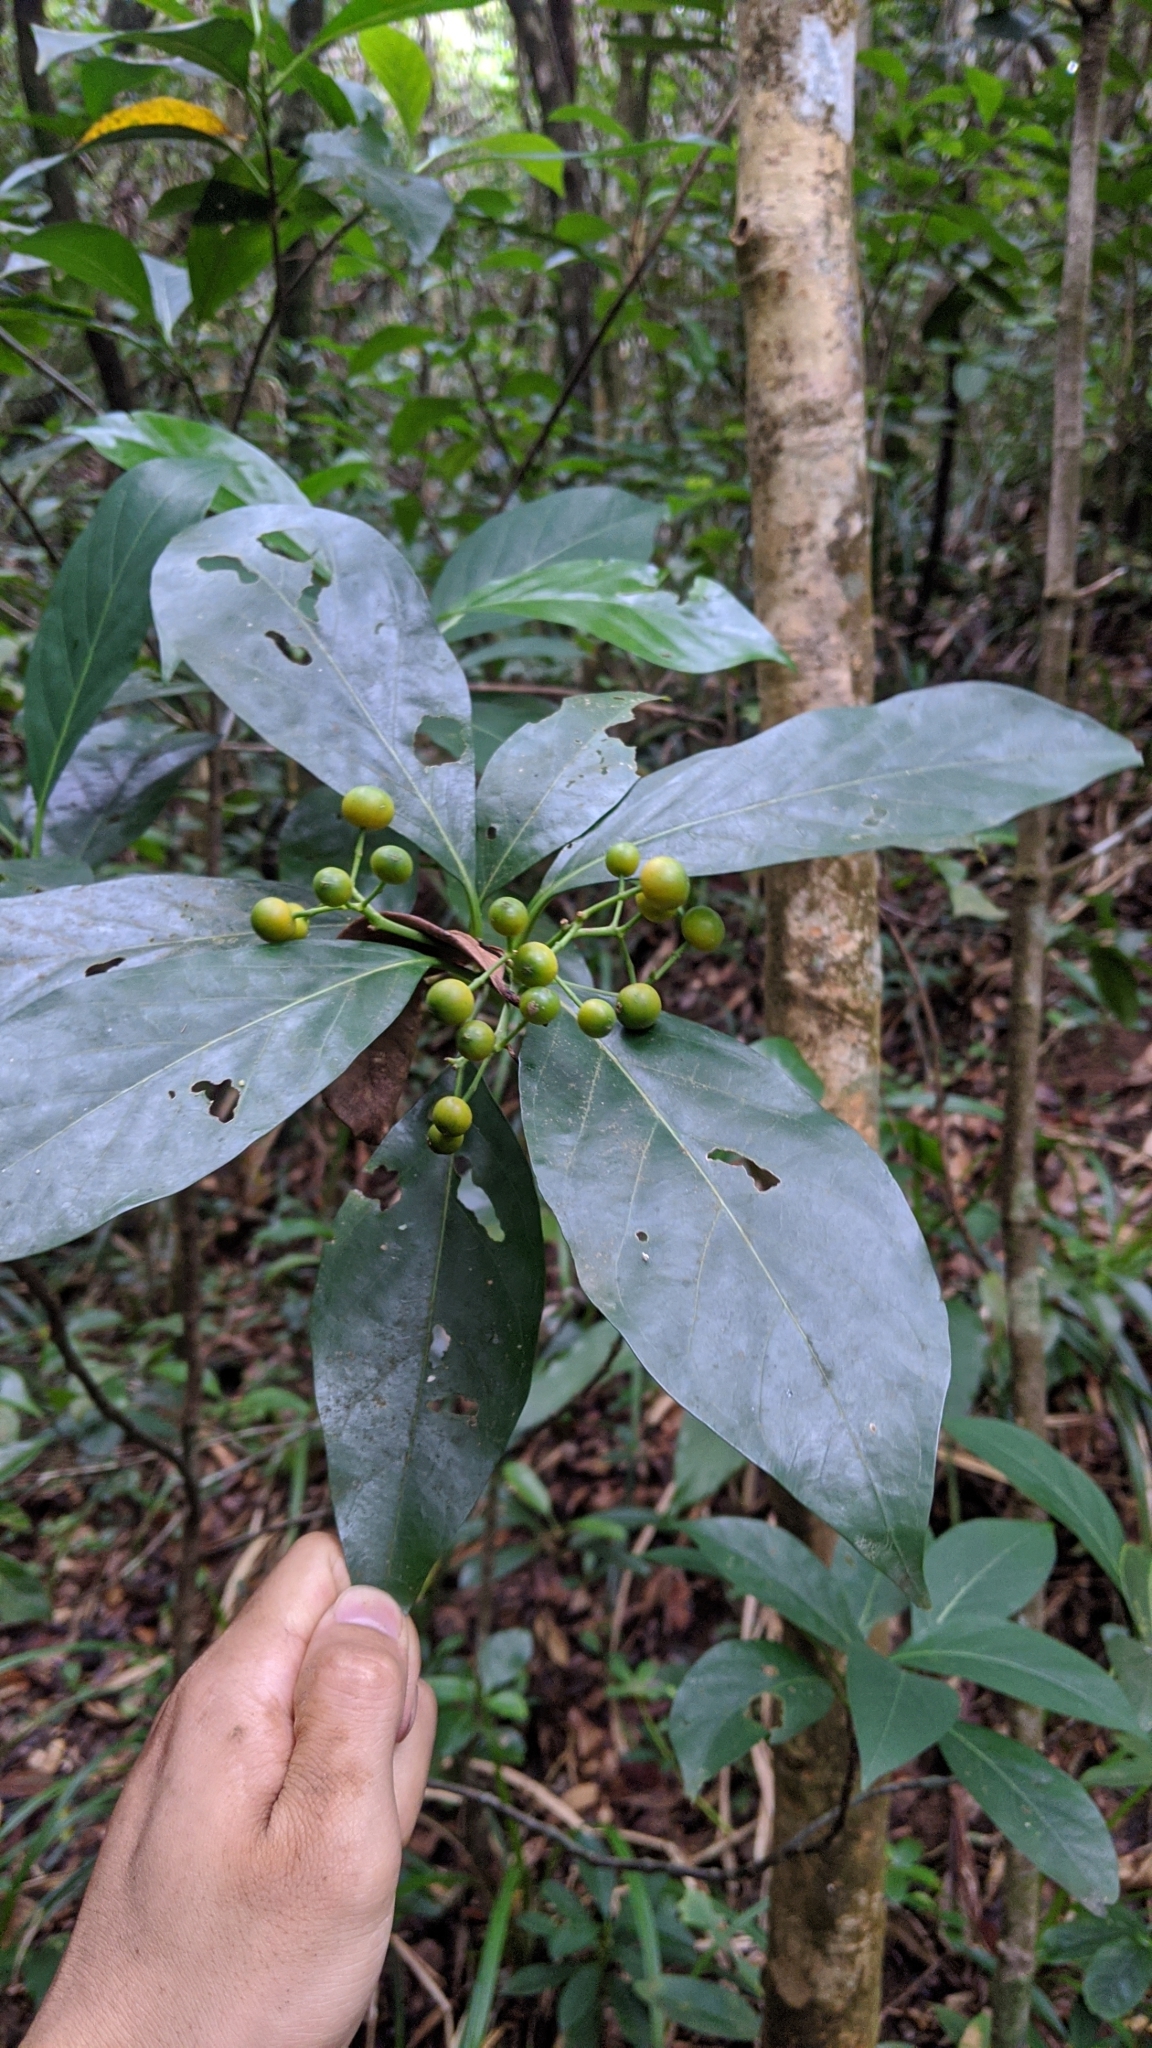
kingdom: Plantae
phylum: Tracheophyta
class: Magnoliopsida
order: Gentianales
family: Rubiaceae
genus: Tarenna
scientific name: Tarenna asiatica
